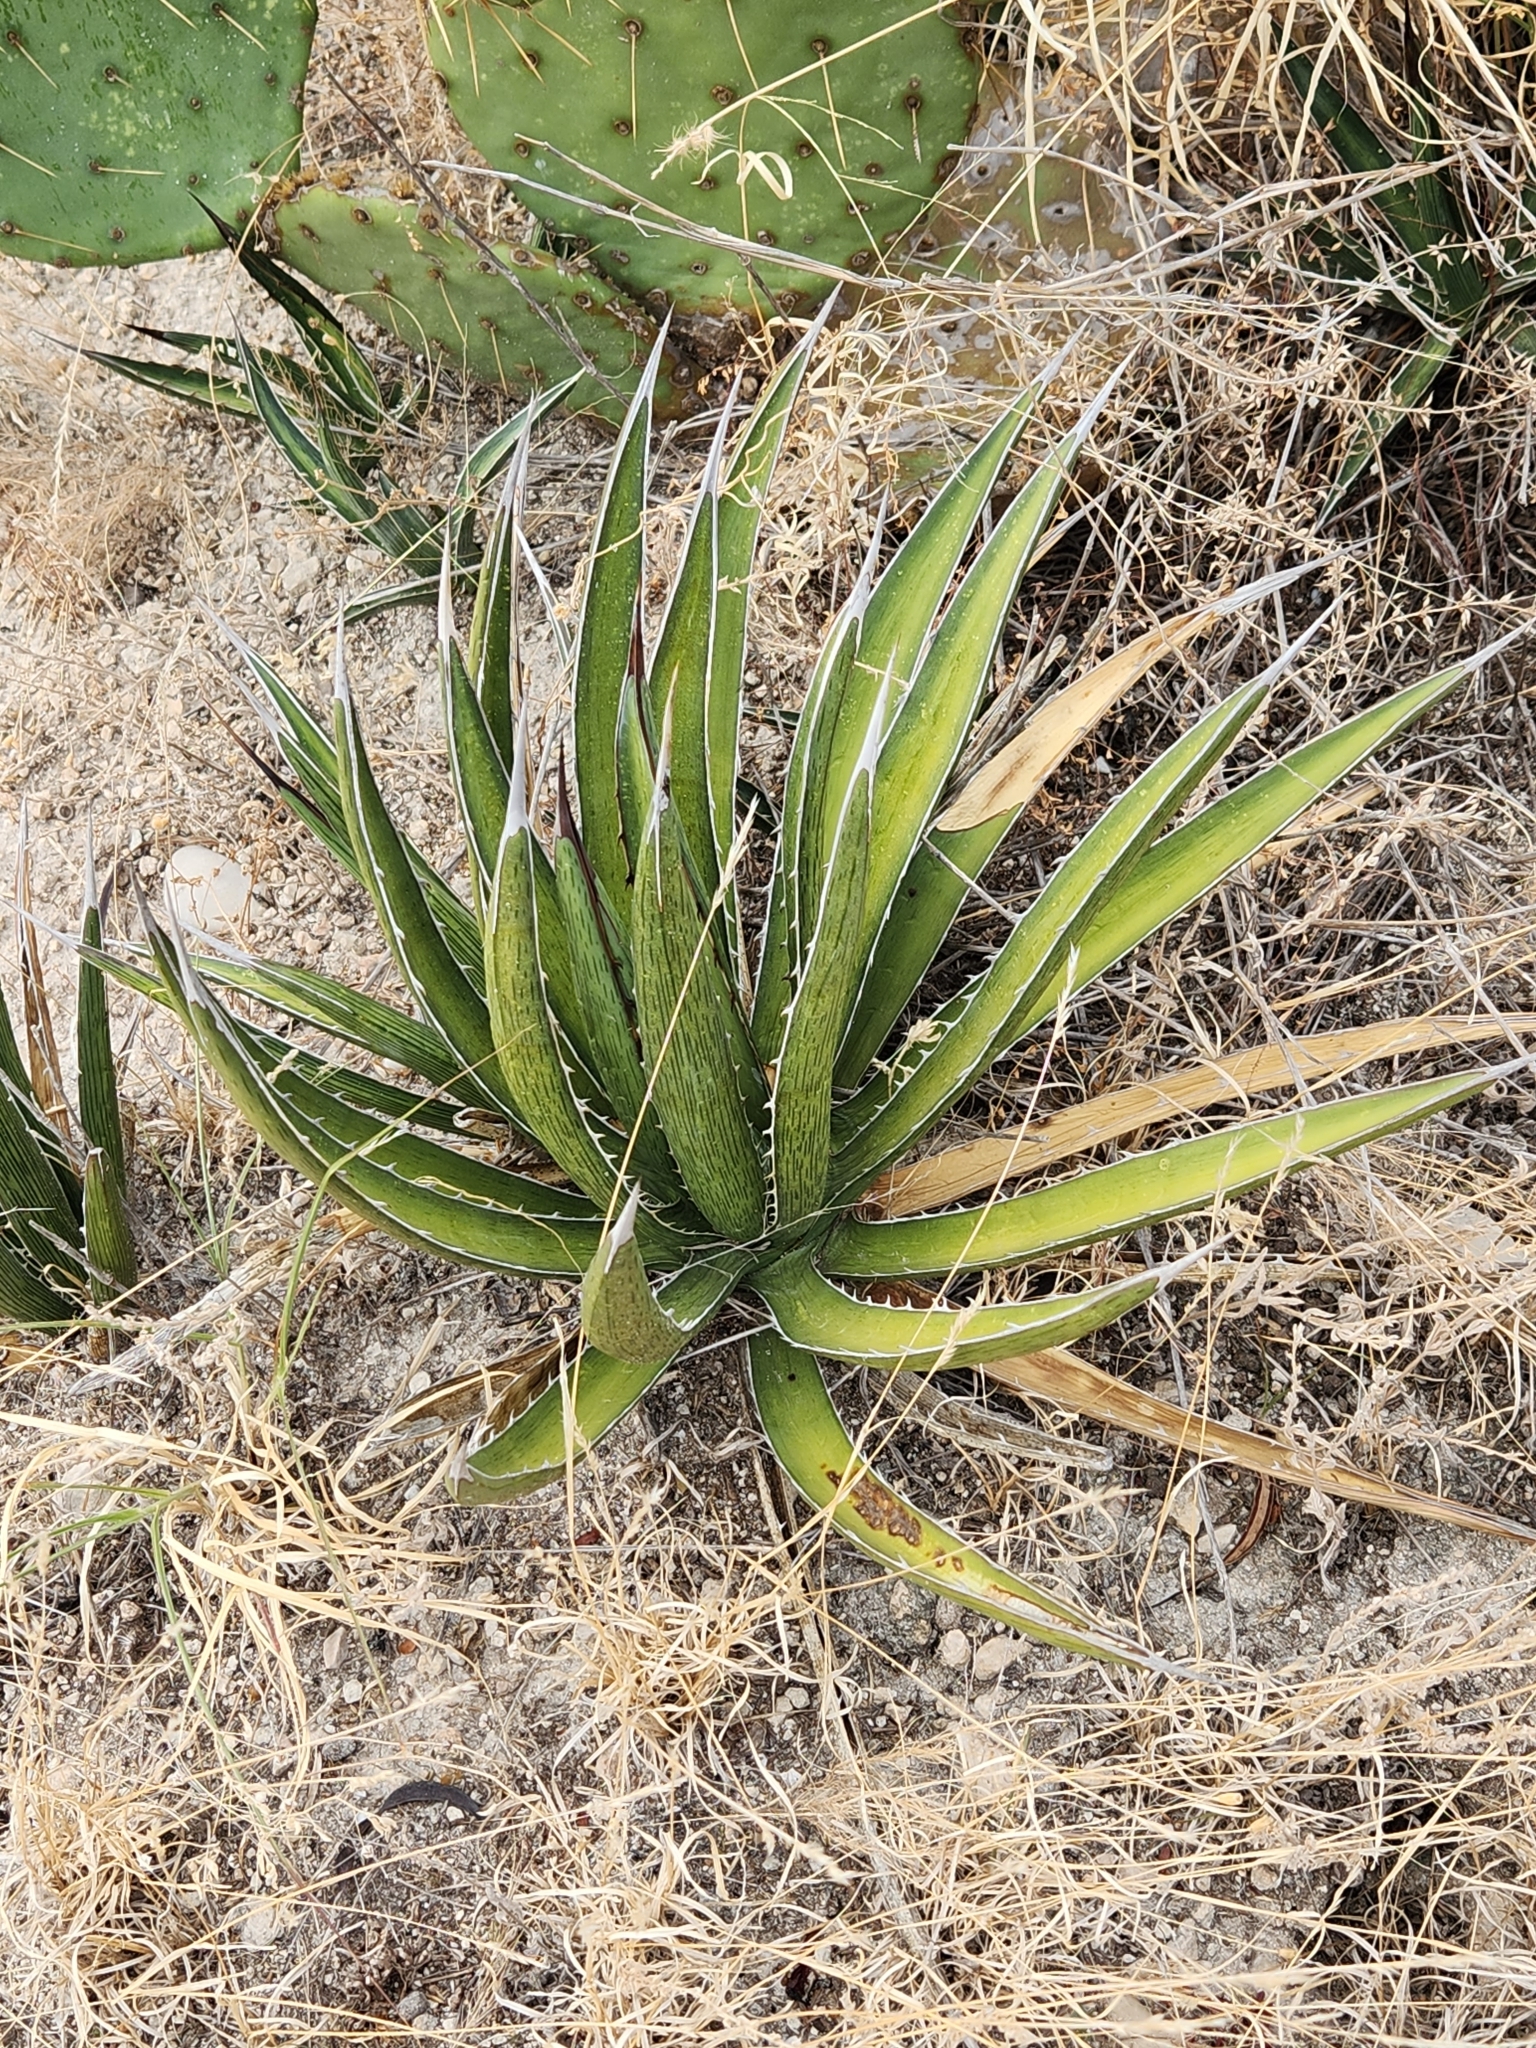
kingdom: Plantae
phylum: Tracheophyta
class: Liliopsida
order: Asparagales
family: Asparagaceae
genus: Agave
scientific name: Agave lechuguilla
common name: Lecheguilla agave
